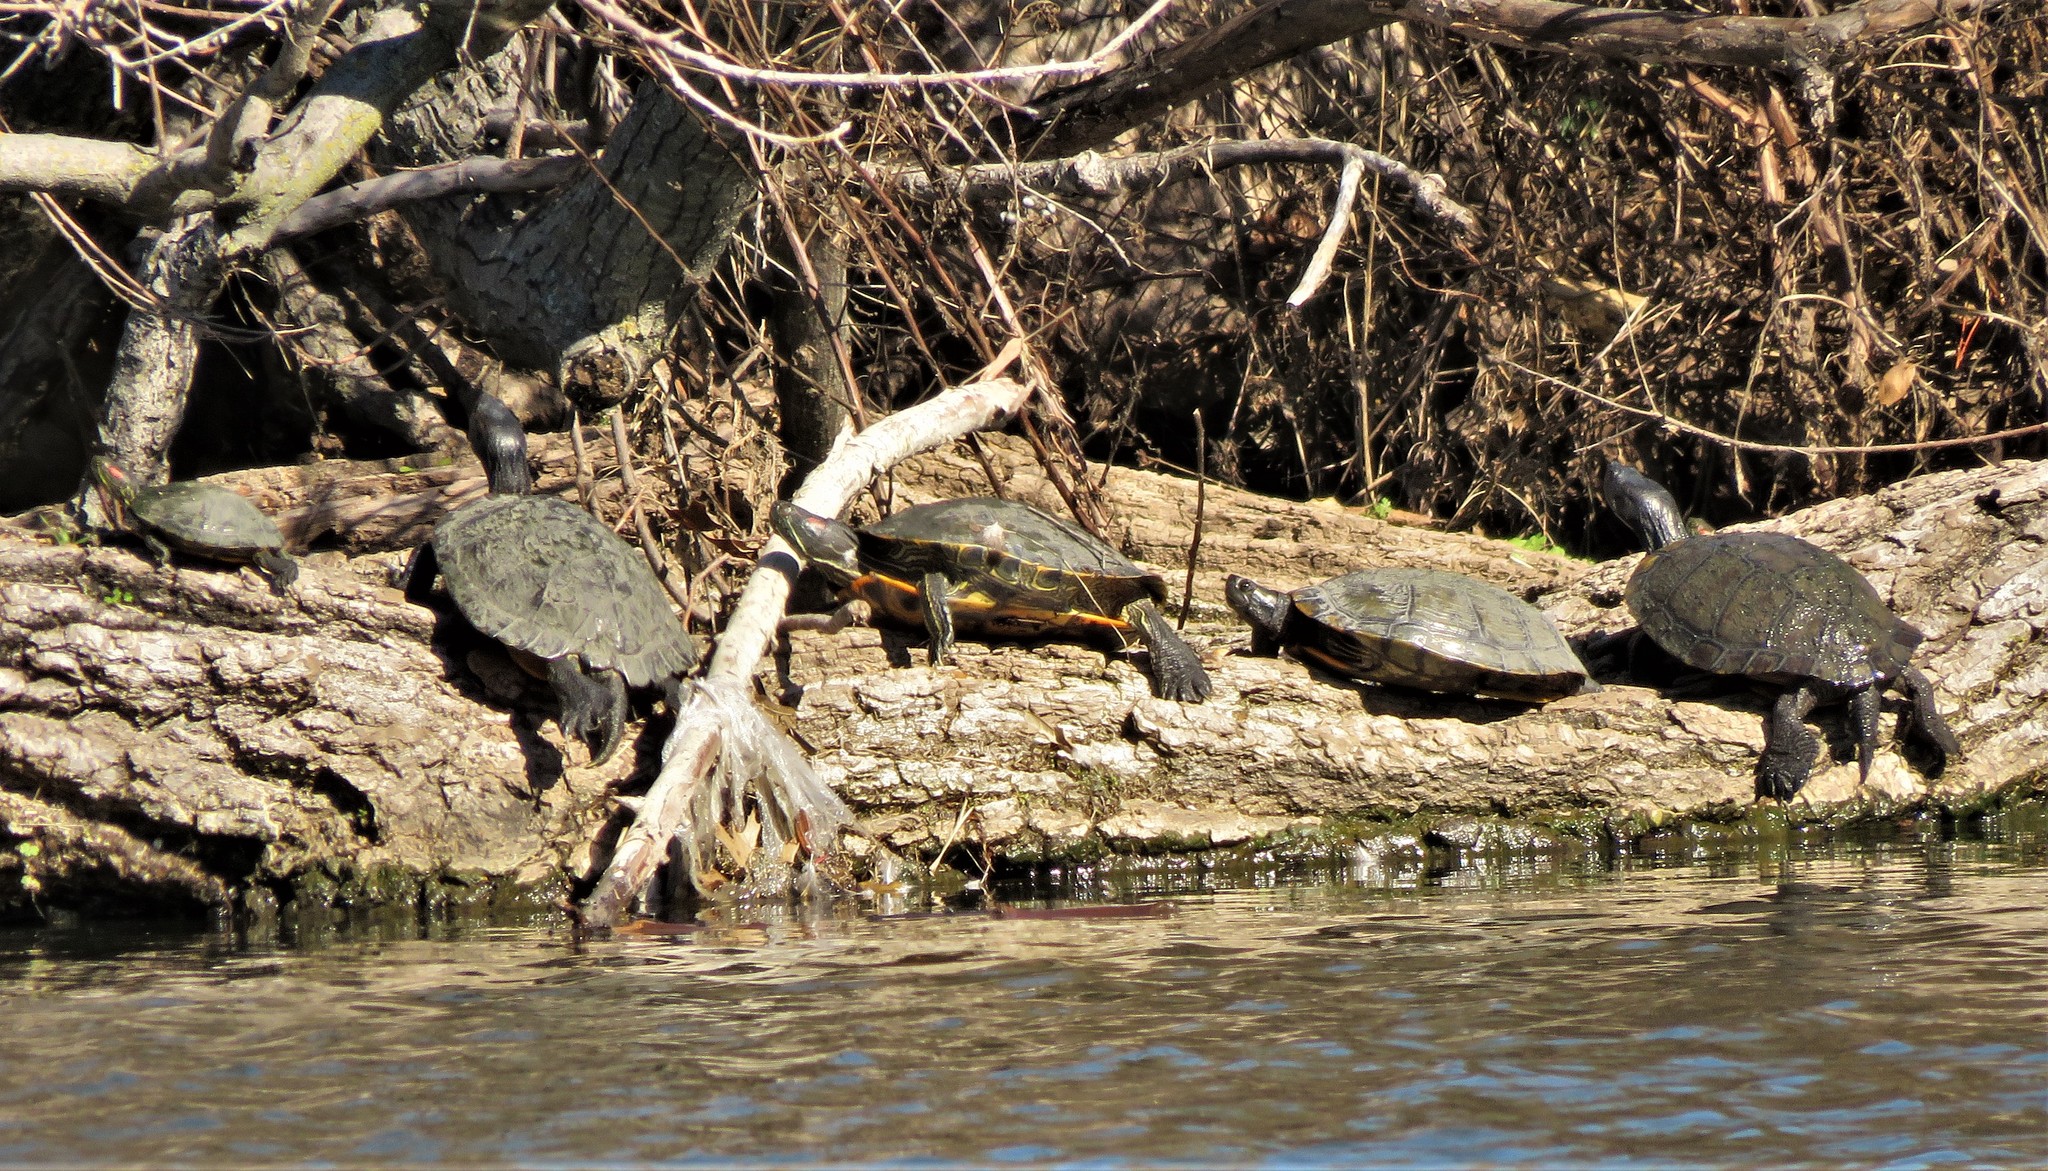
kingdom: Animalia
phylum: Chordata
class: Testudines
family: Emydidae
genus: Trachemys
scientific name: Trachemys scripta
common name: Slider
